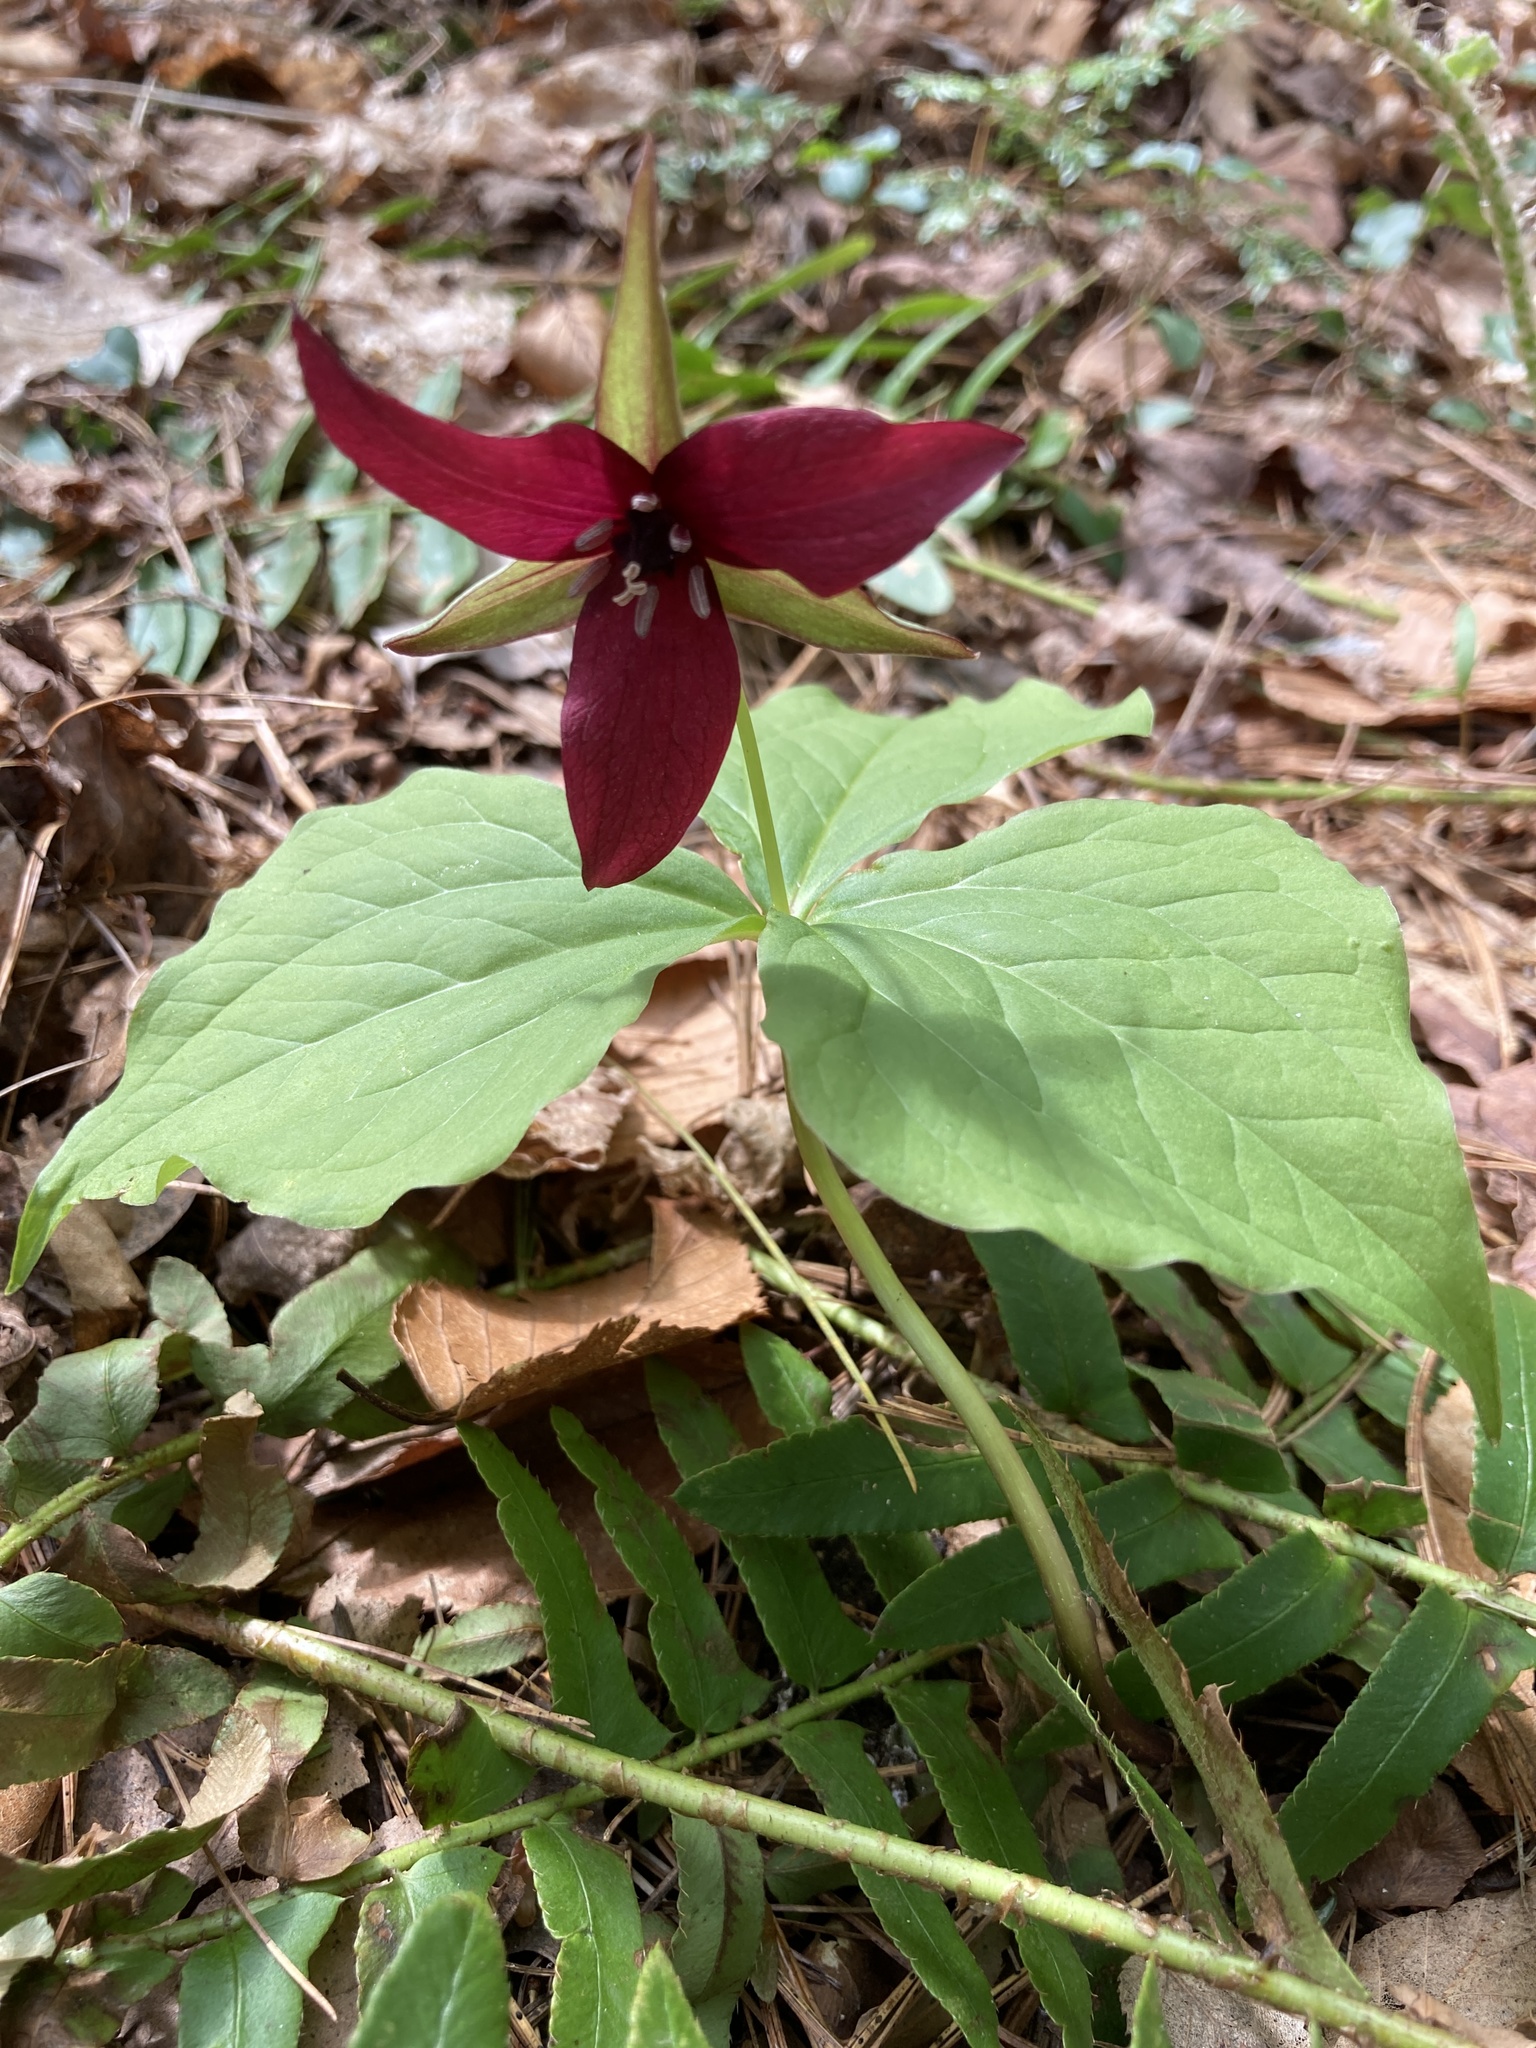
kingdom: Plantae
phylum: Tracheophyta
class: Liliopsida
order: Liliales
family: Melanthiaceae
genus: Trillium
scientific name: Trillium erectum
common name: Purple trillium
